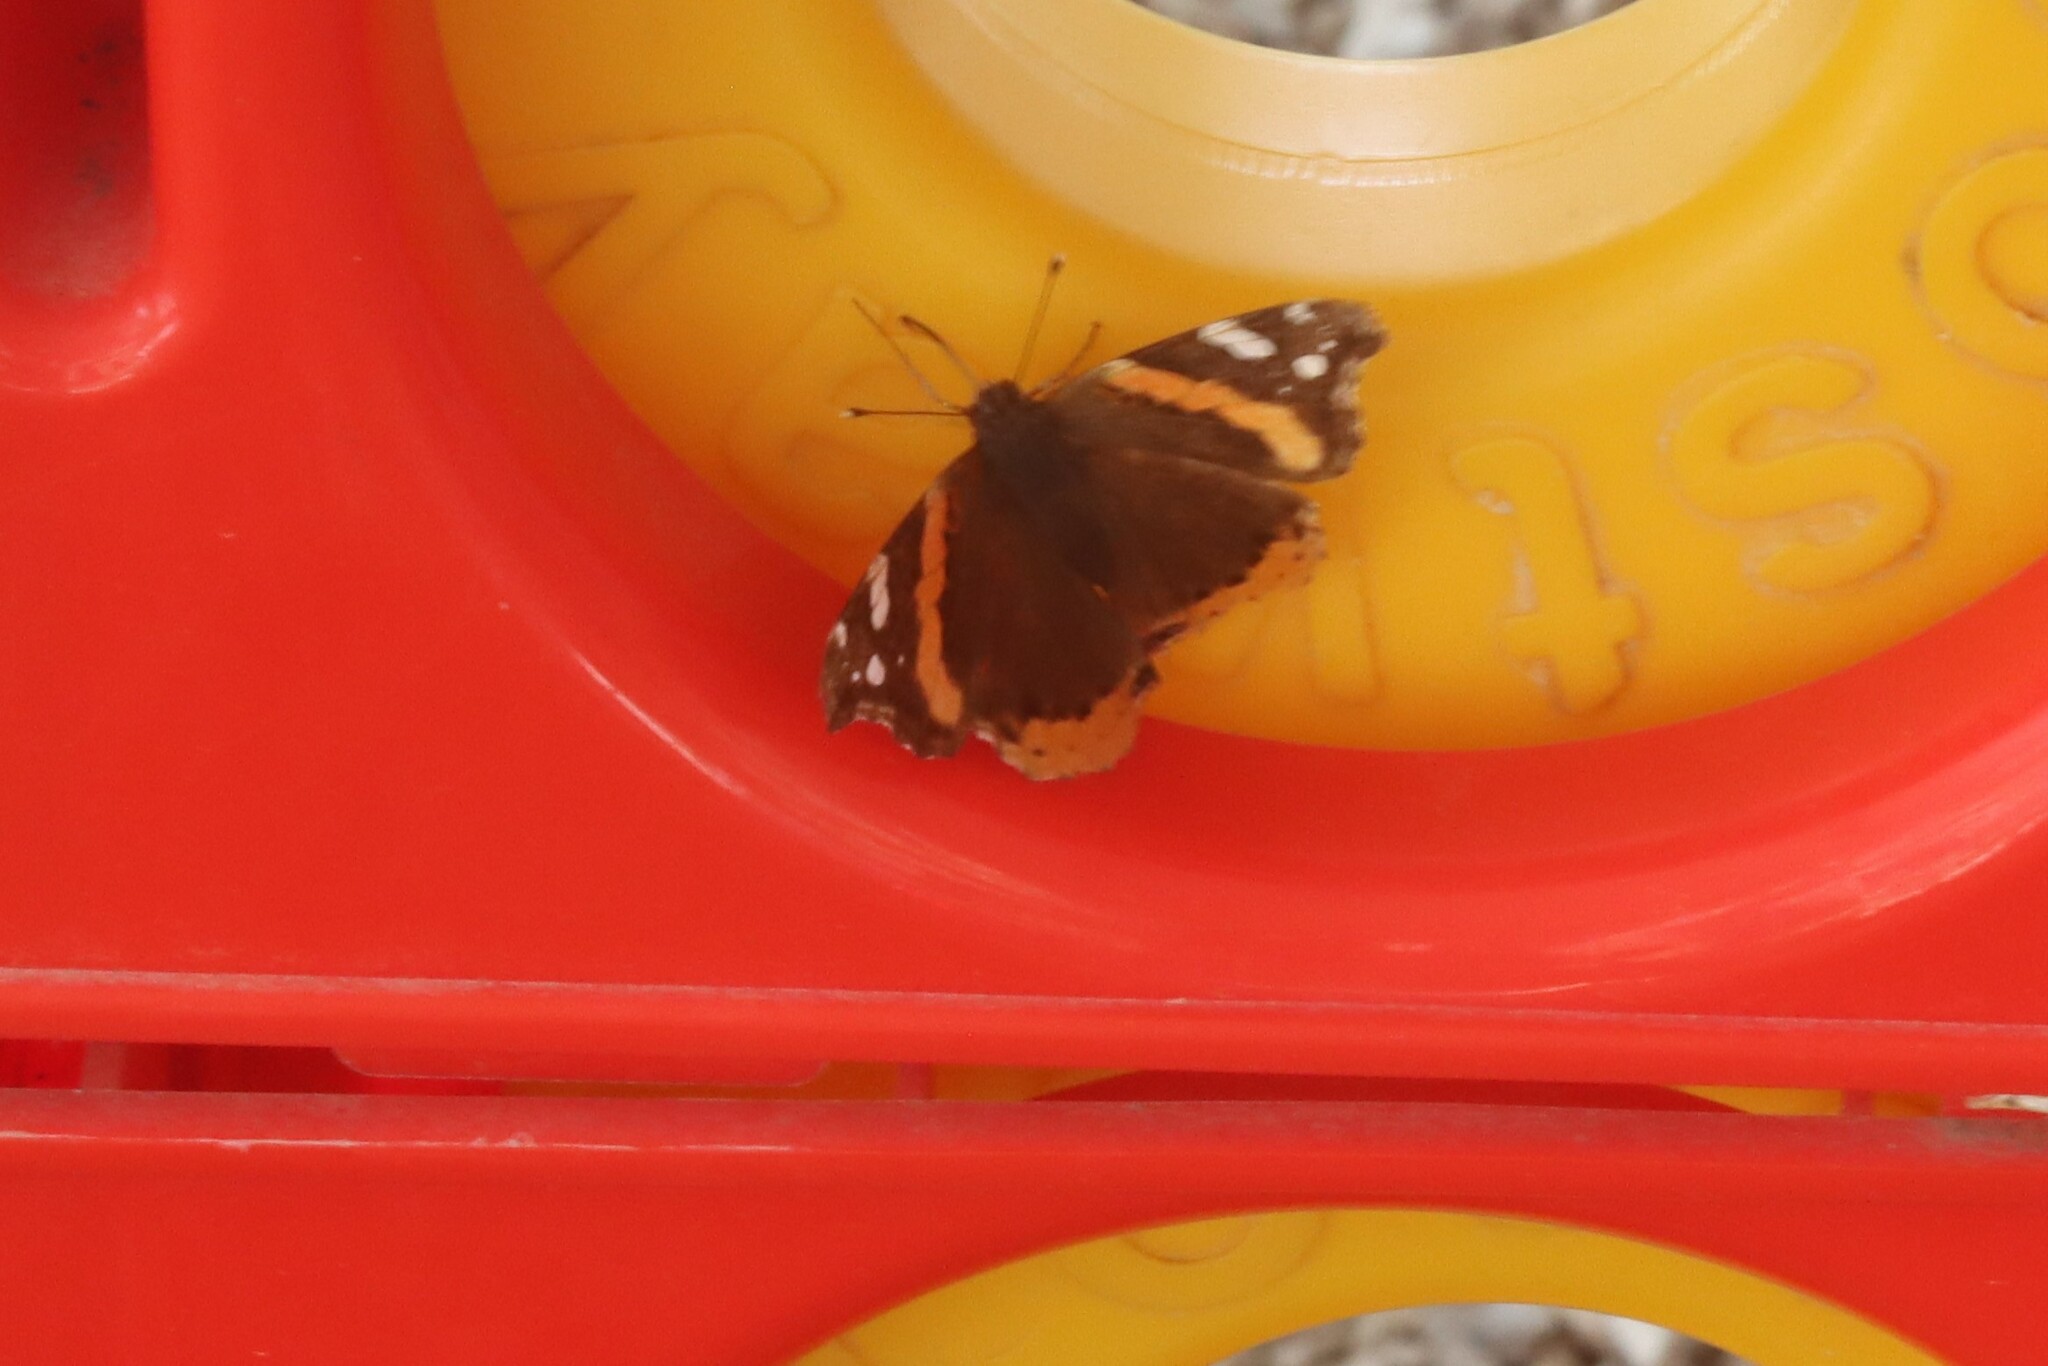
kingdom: Animalia
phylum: Arthropoda
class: Insecta
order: Lepidoptera
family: Nymphalidae
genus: Vanessa
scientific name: Vanessa atalanta
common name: Red admiral
